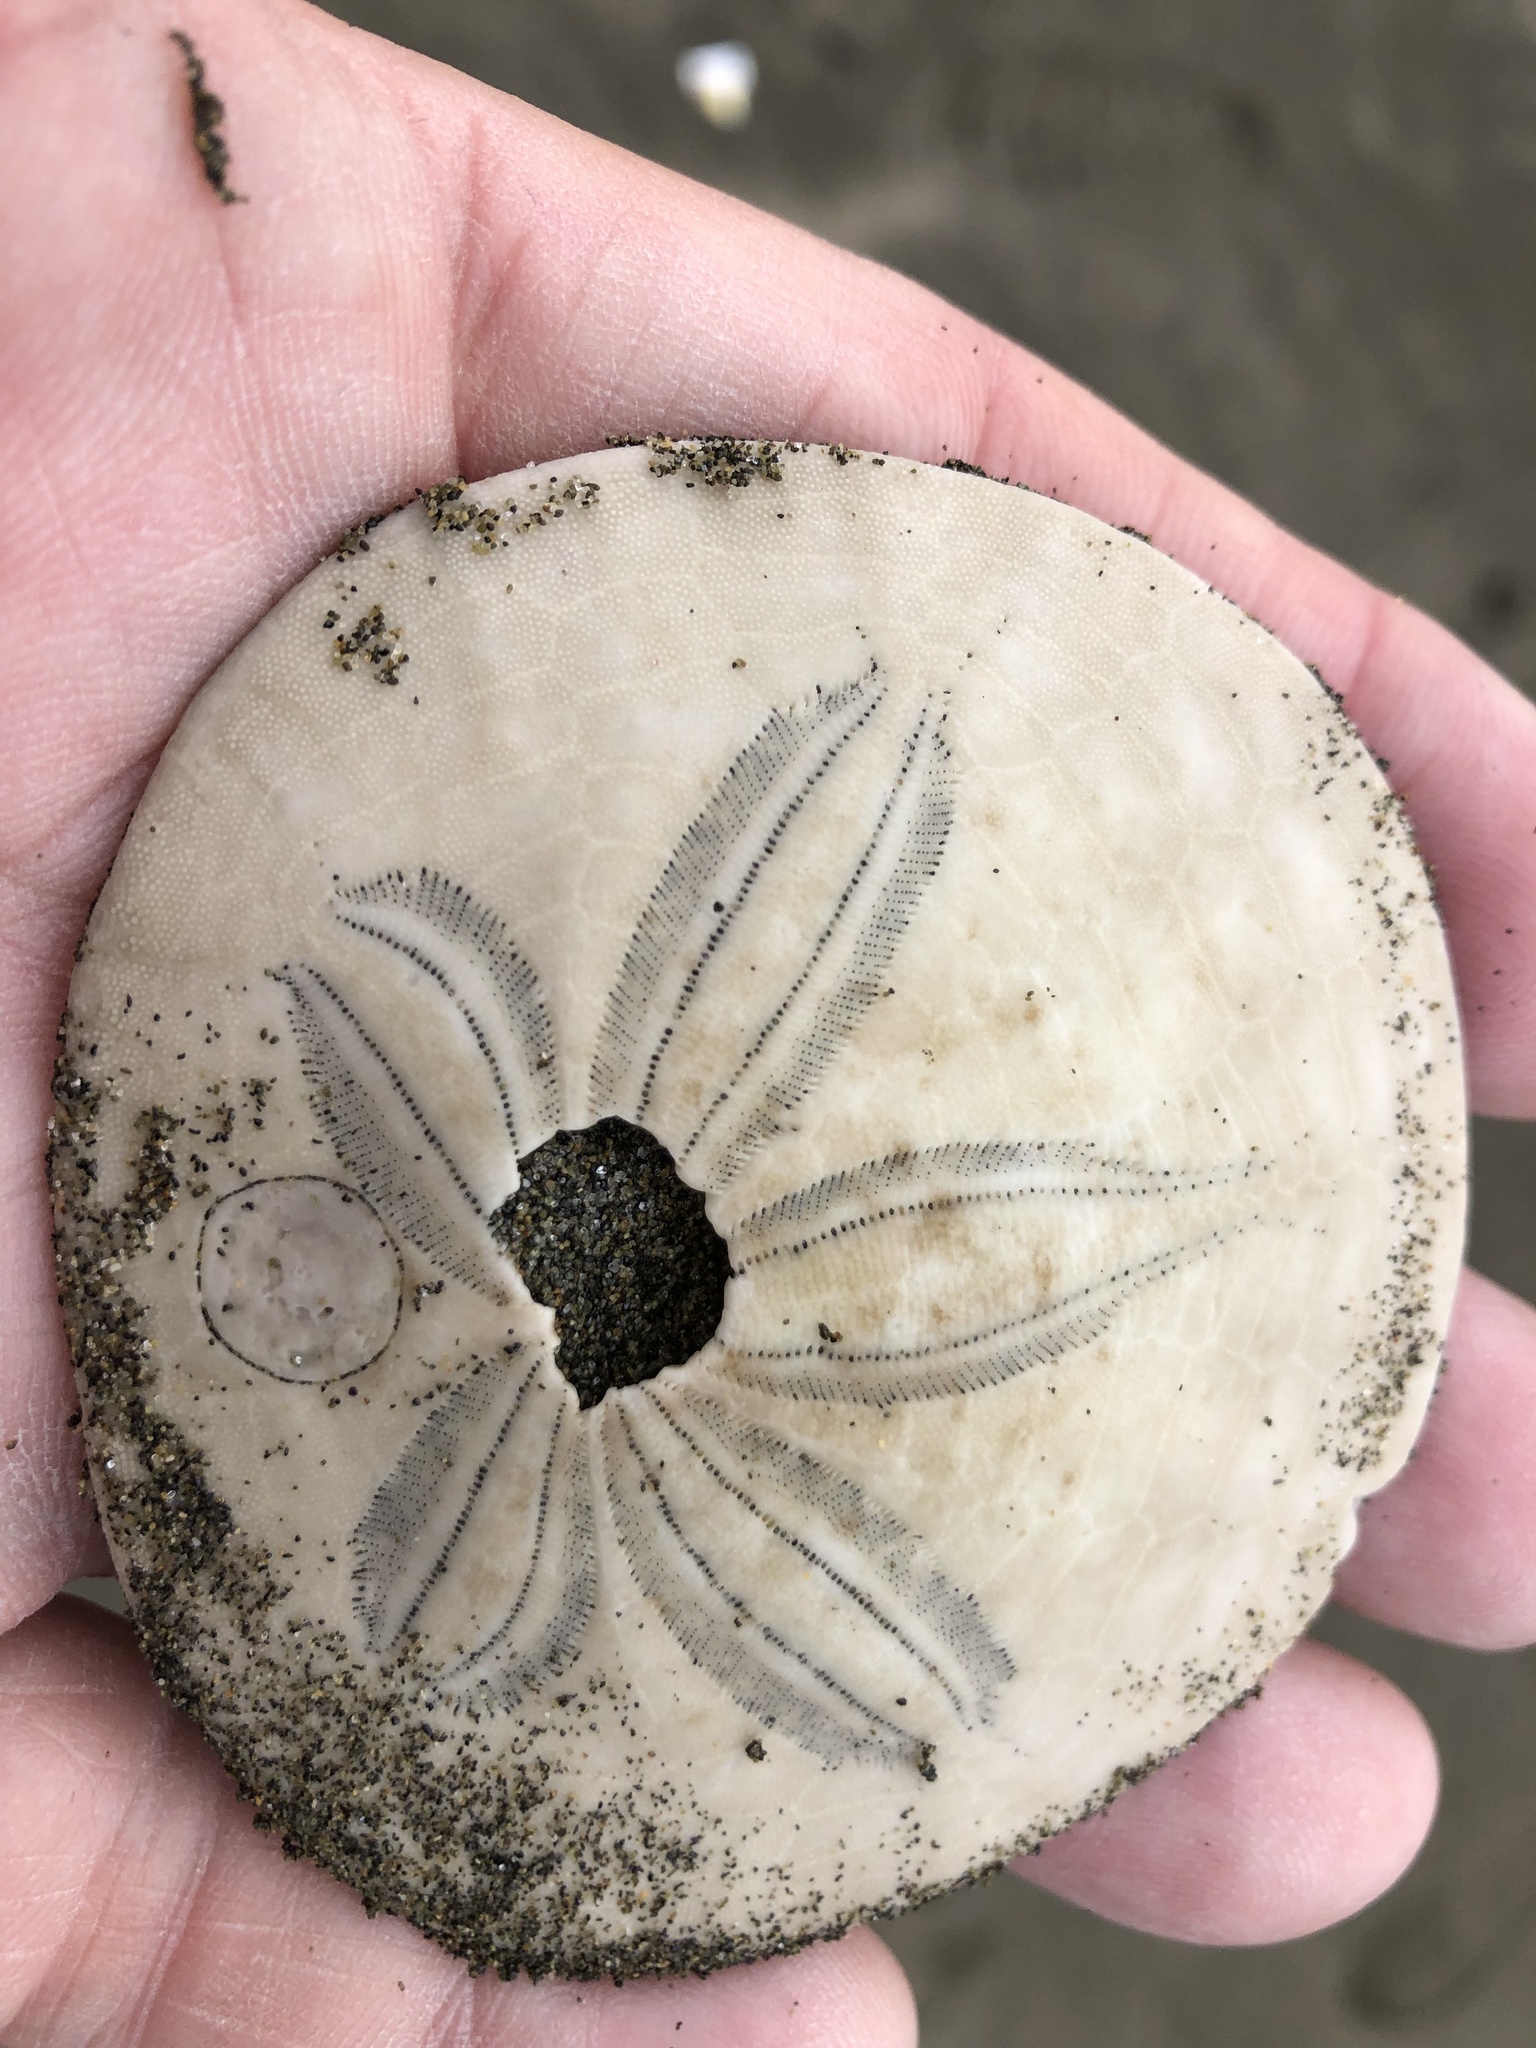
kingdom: Animalia
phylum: Echinodermata
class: Echinoidea
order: Echinolampadacea
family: Dendrasteridae
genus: Dendraster
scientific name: Dendraster excentricus
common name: Eccentric sand dollar sea urchin
